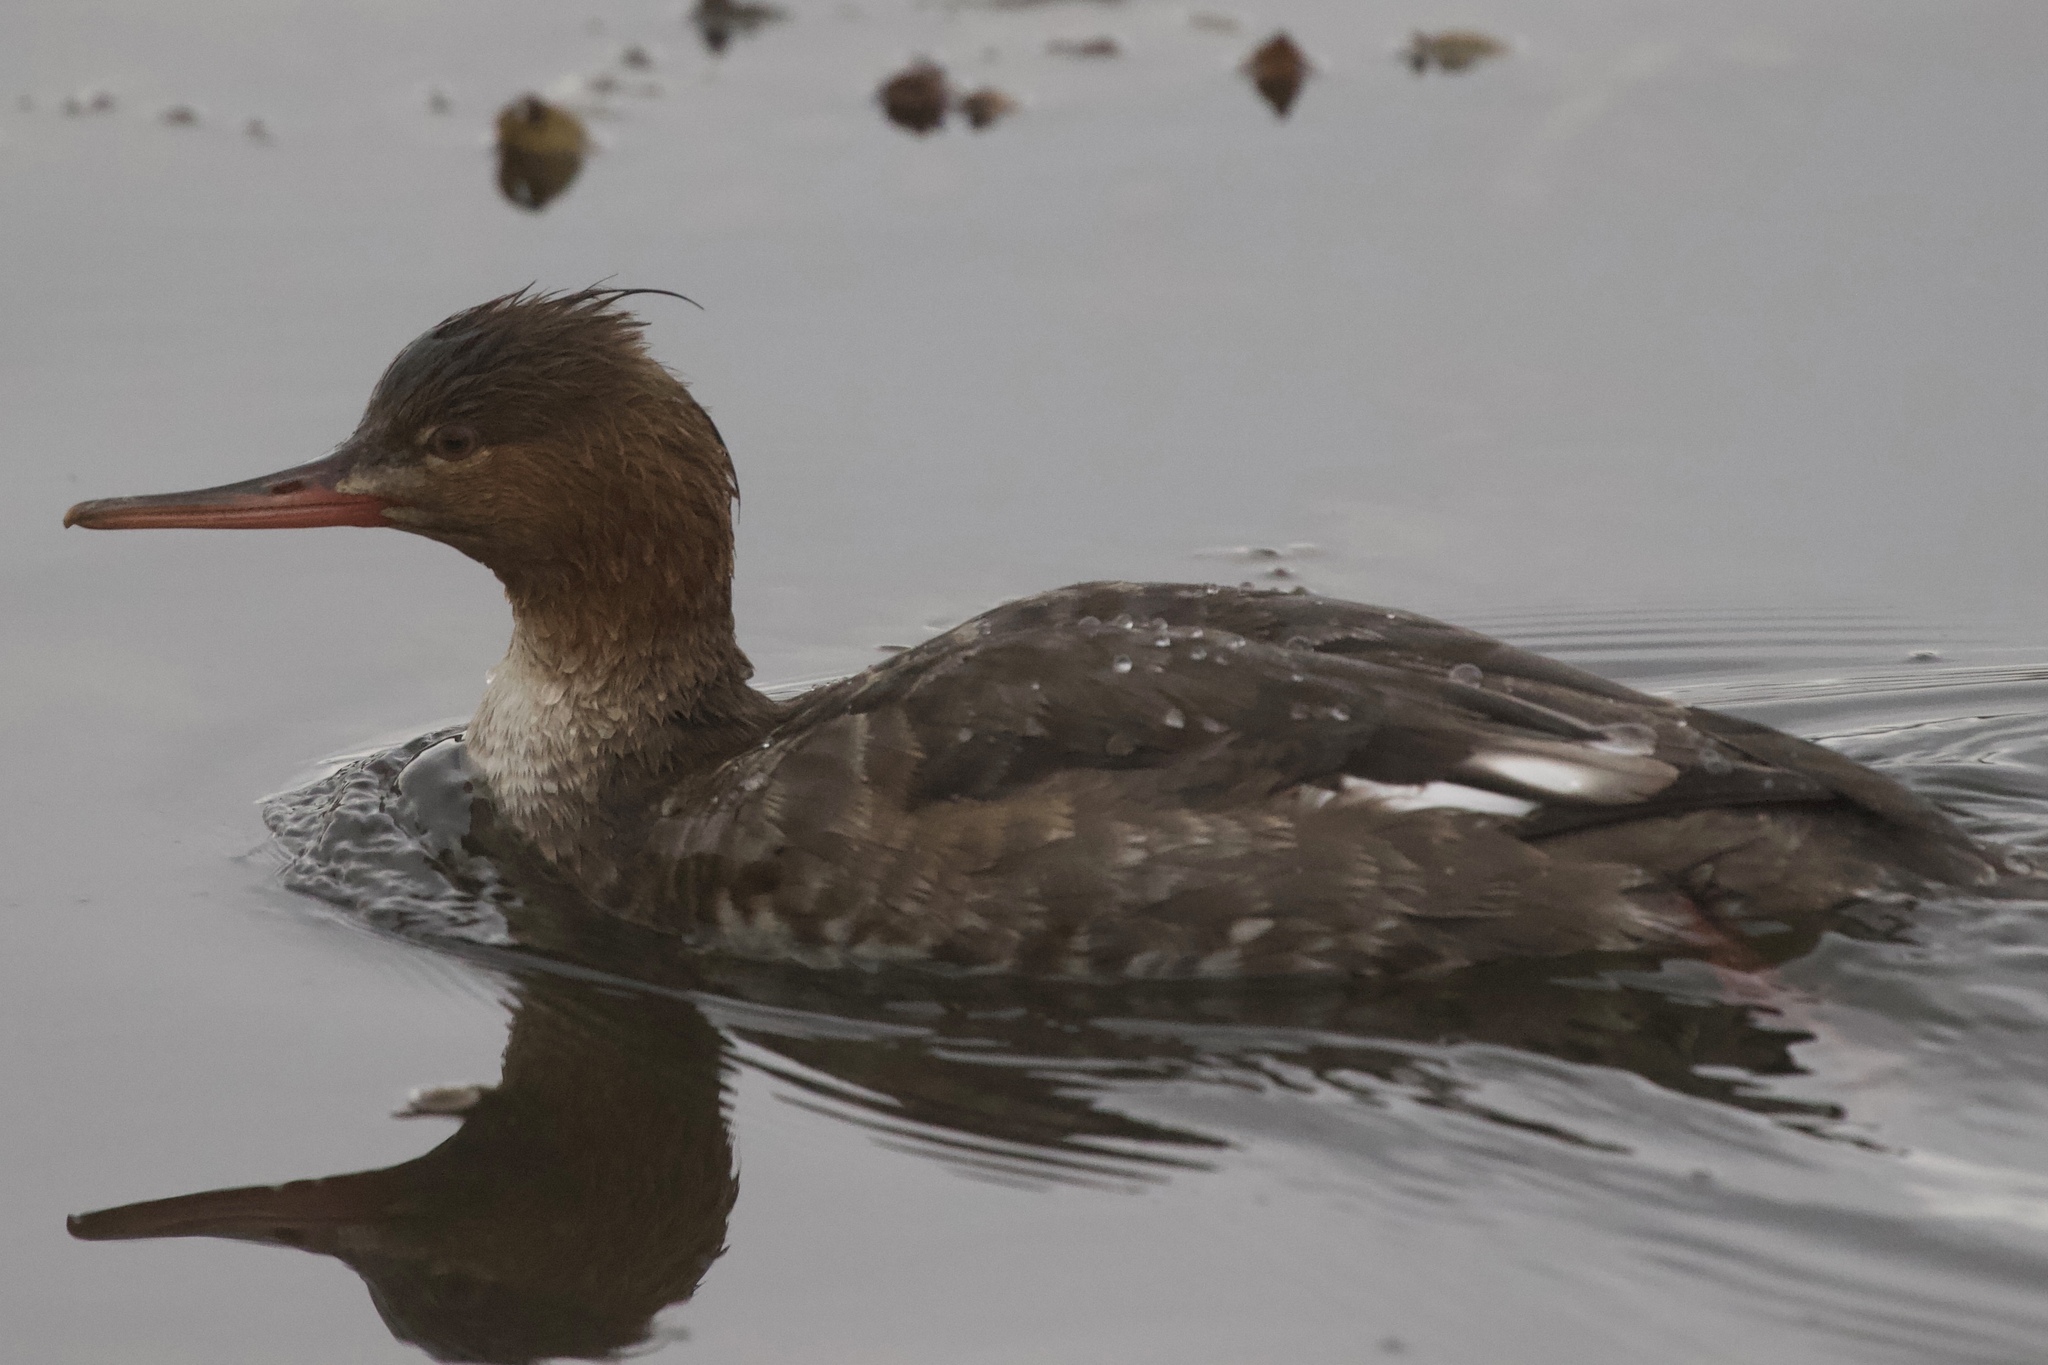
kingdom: Animalia
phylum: Chordata
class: Aves
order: Anseriformes
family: Anatidae
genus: Mergus
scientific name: Mergus serrator
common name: Red-breasted merganser
